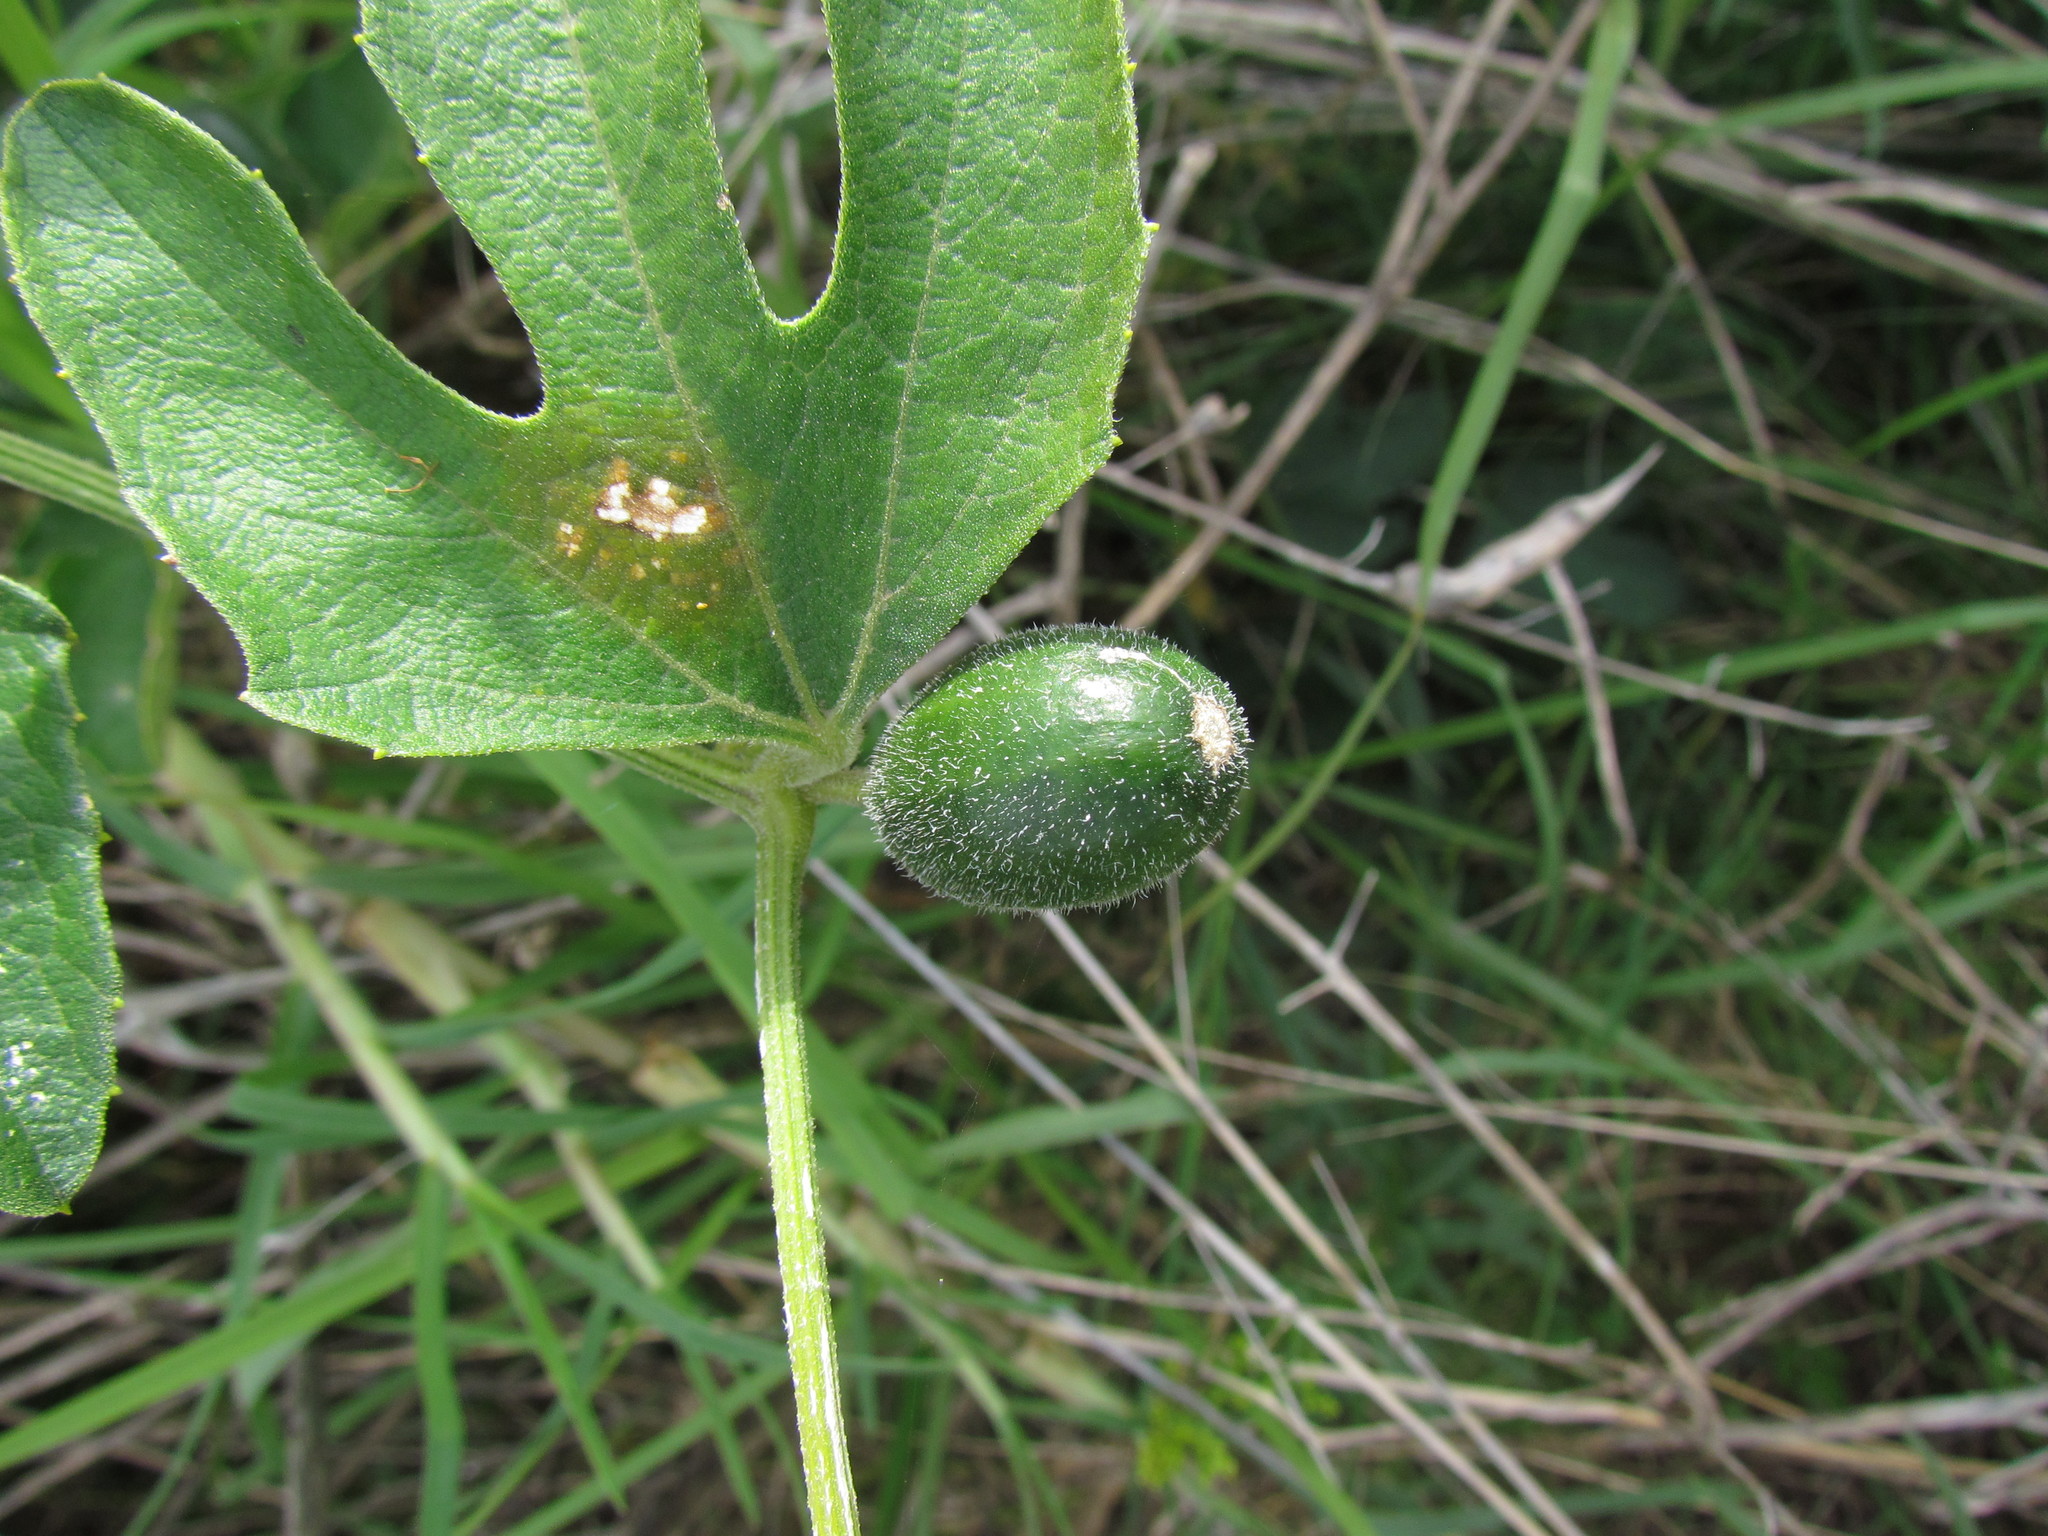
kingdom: Plantae
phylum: Tracheophyta
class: Magnoliopsida
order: Cucurbitales
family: Cucurbitaceae
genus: Cayaponia
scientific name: Cayaponia podantha
